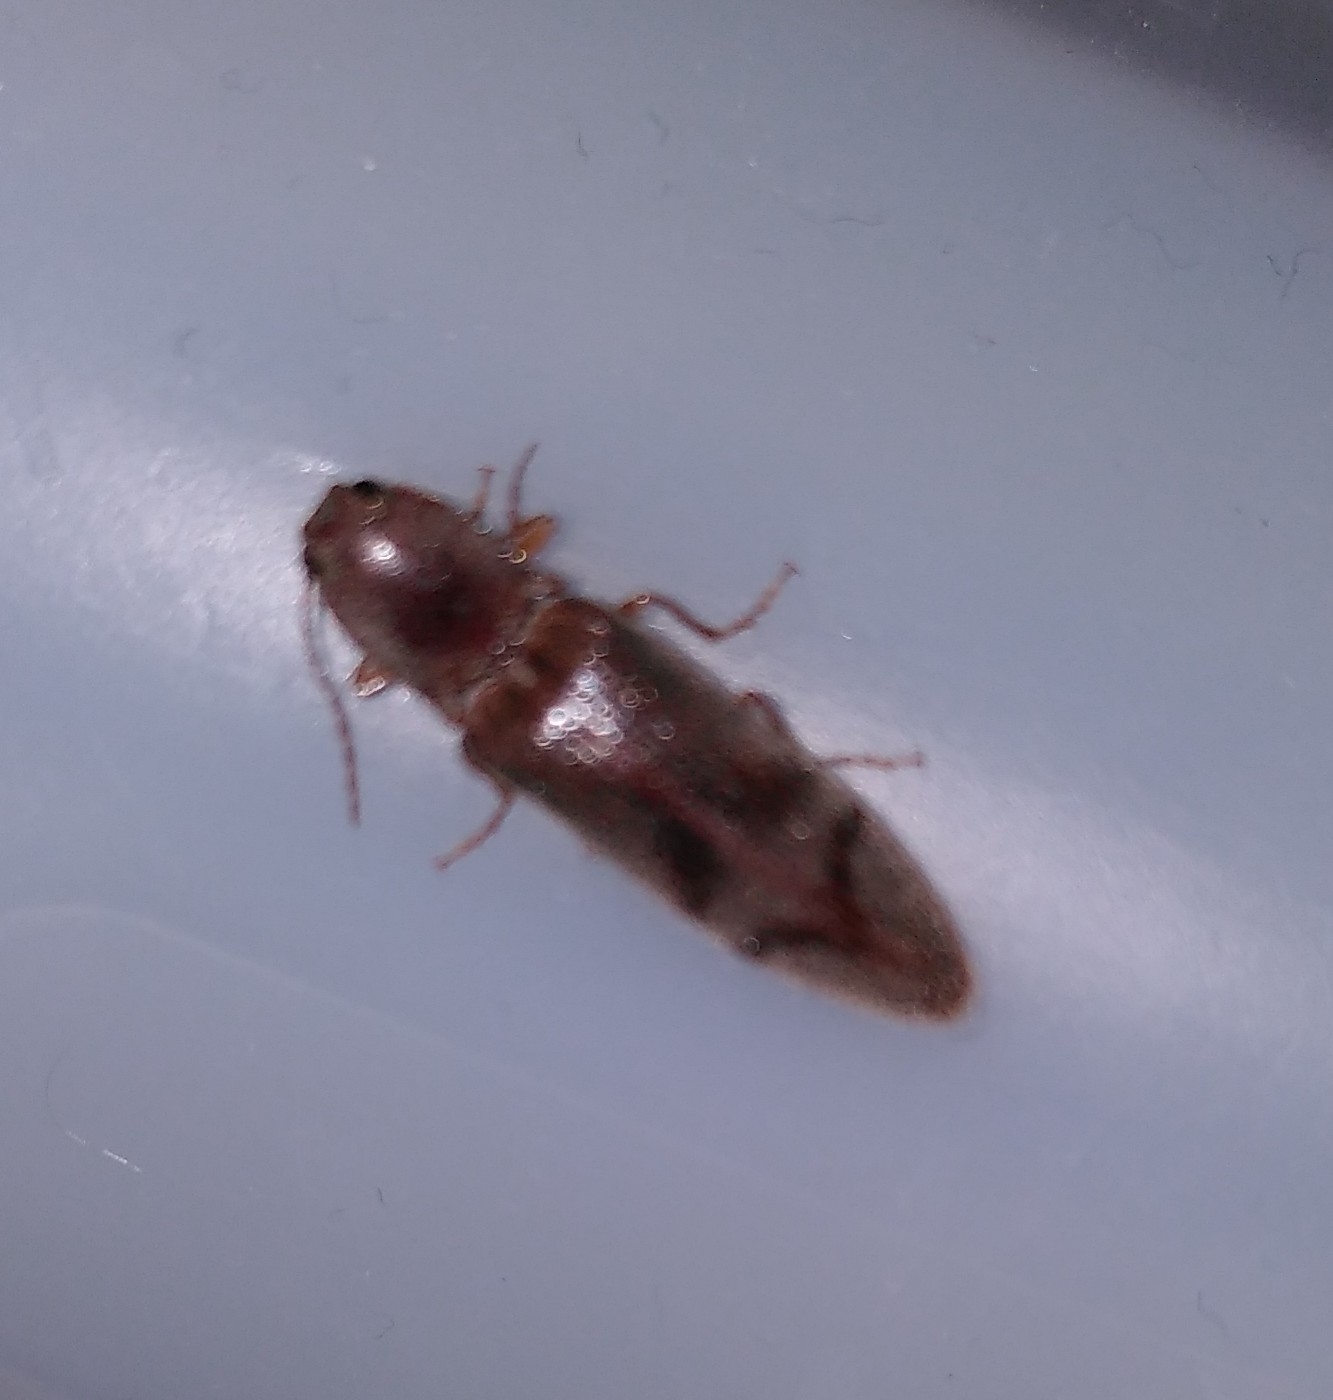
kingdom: Animalia
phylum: Arthropoda
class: Insecta
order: Coleoptera
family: Elateridae
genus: Stenagostus
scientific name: Stenagostus rhombeus
